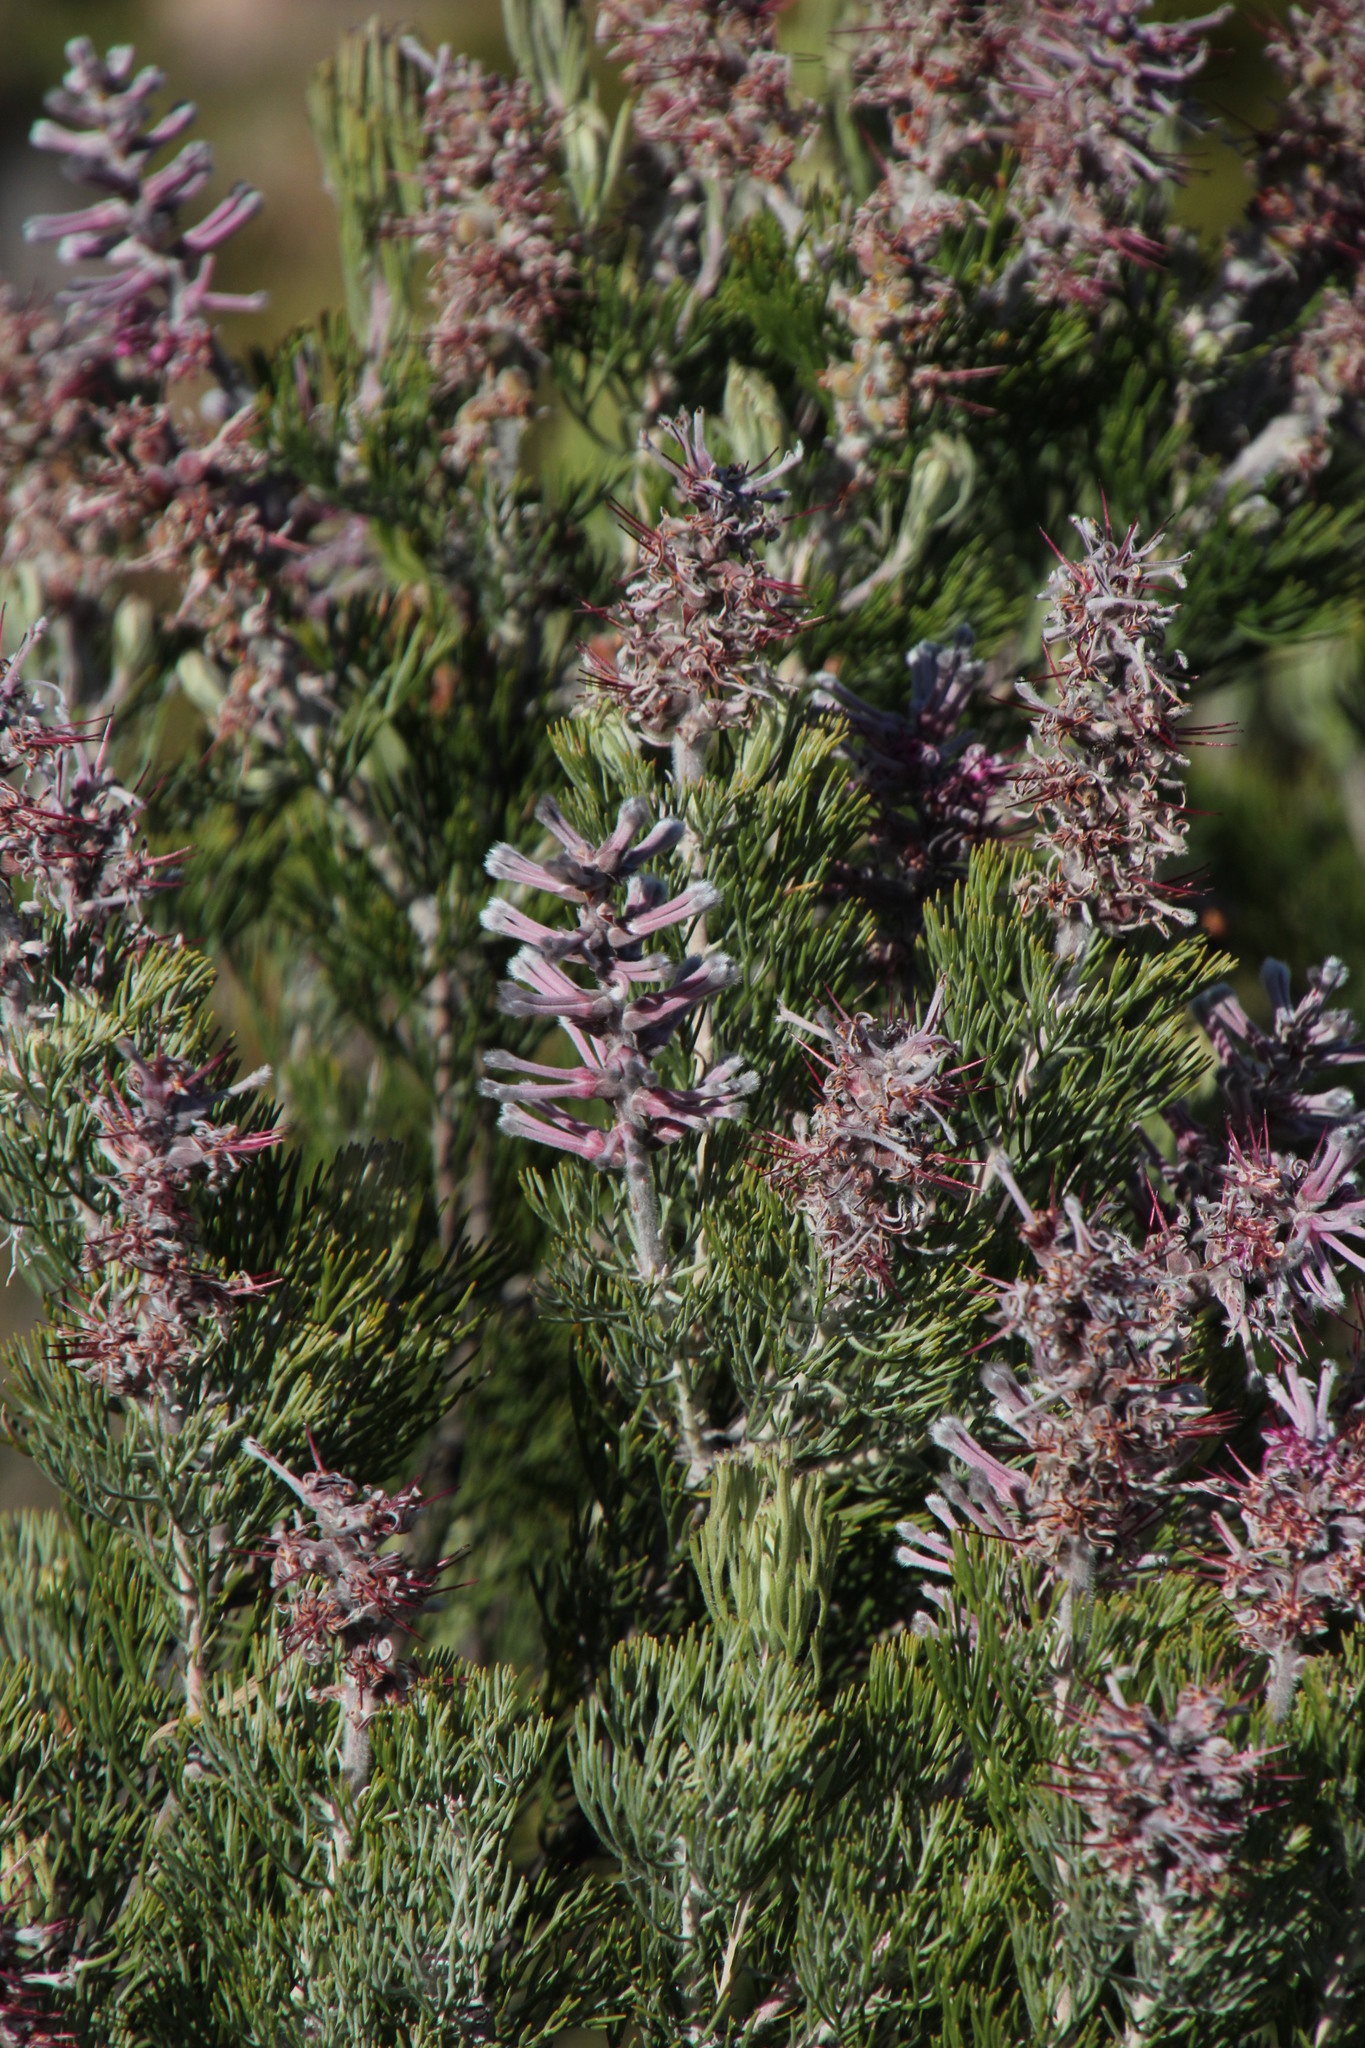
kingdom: Plantae
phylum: Tracheophyta
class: Magnoliopsida
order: Proteales
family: Proteaceae
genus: Paranomus
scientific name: Paranomus bracteolaris
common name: Bokkeveld tree sceptre
